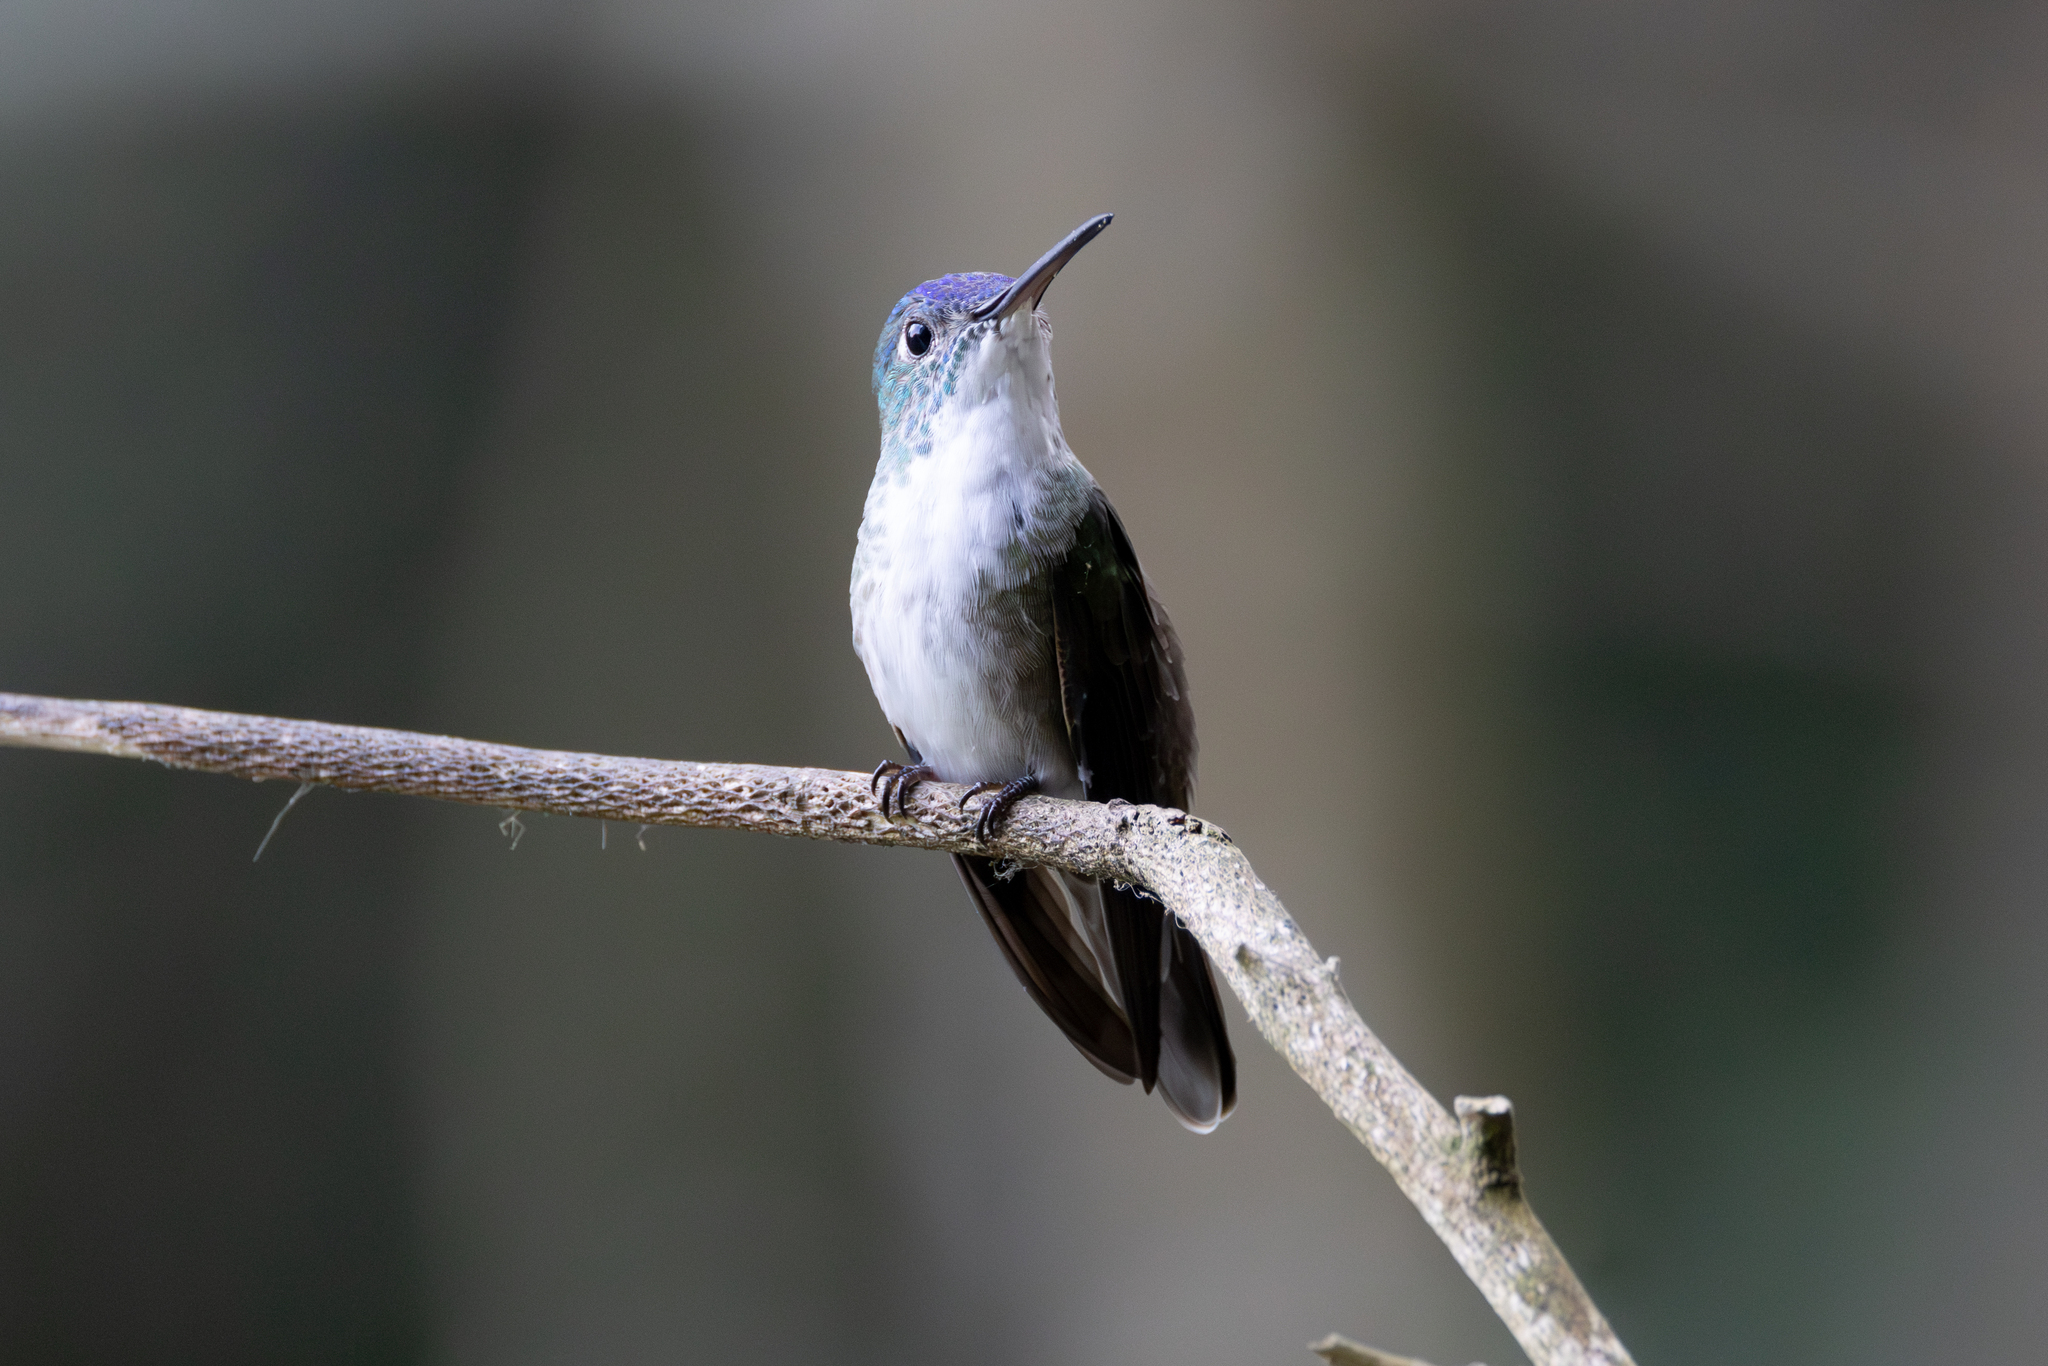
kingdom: Animalia
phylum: Chordata
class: Aves
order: Apodiformes
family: Trochilidae
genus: Saucerottia
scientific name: Saucerottia cyanocephala
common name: Azure-crowned hummingbird
